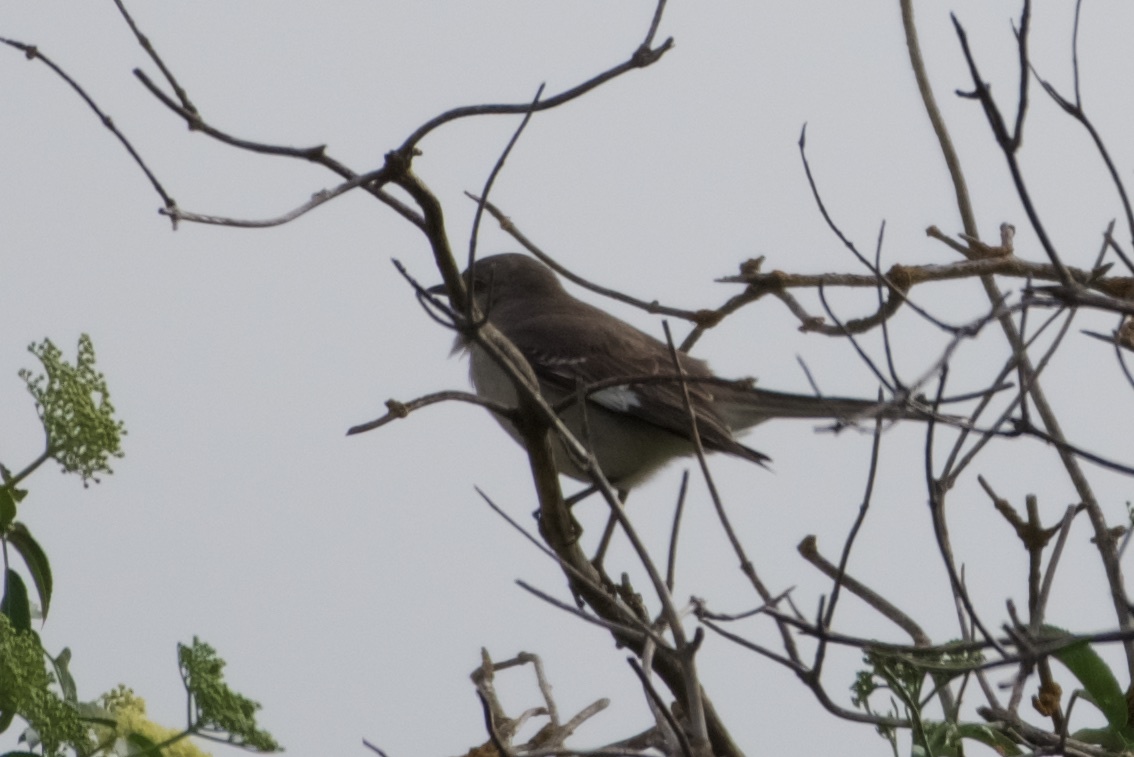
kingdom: Animalia
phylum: Chordata
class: Aves
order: Passeriformes
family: Mimidae
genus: Mimus
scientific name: Mimus polyglottos
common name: Northern mockingbird
